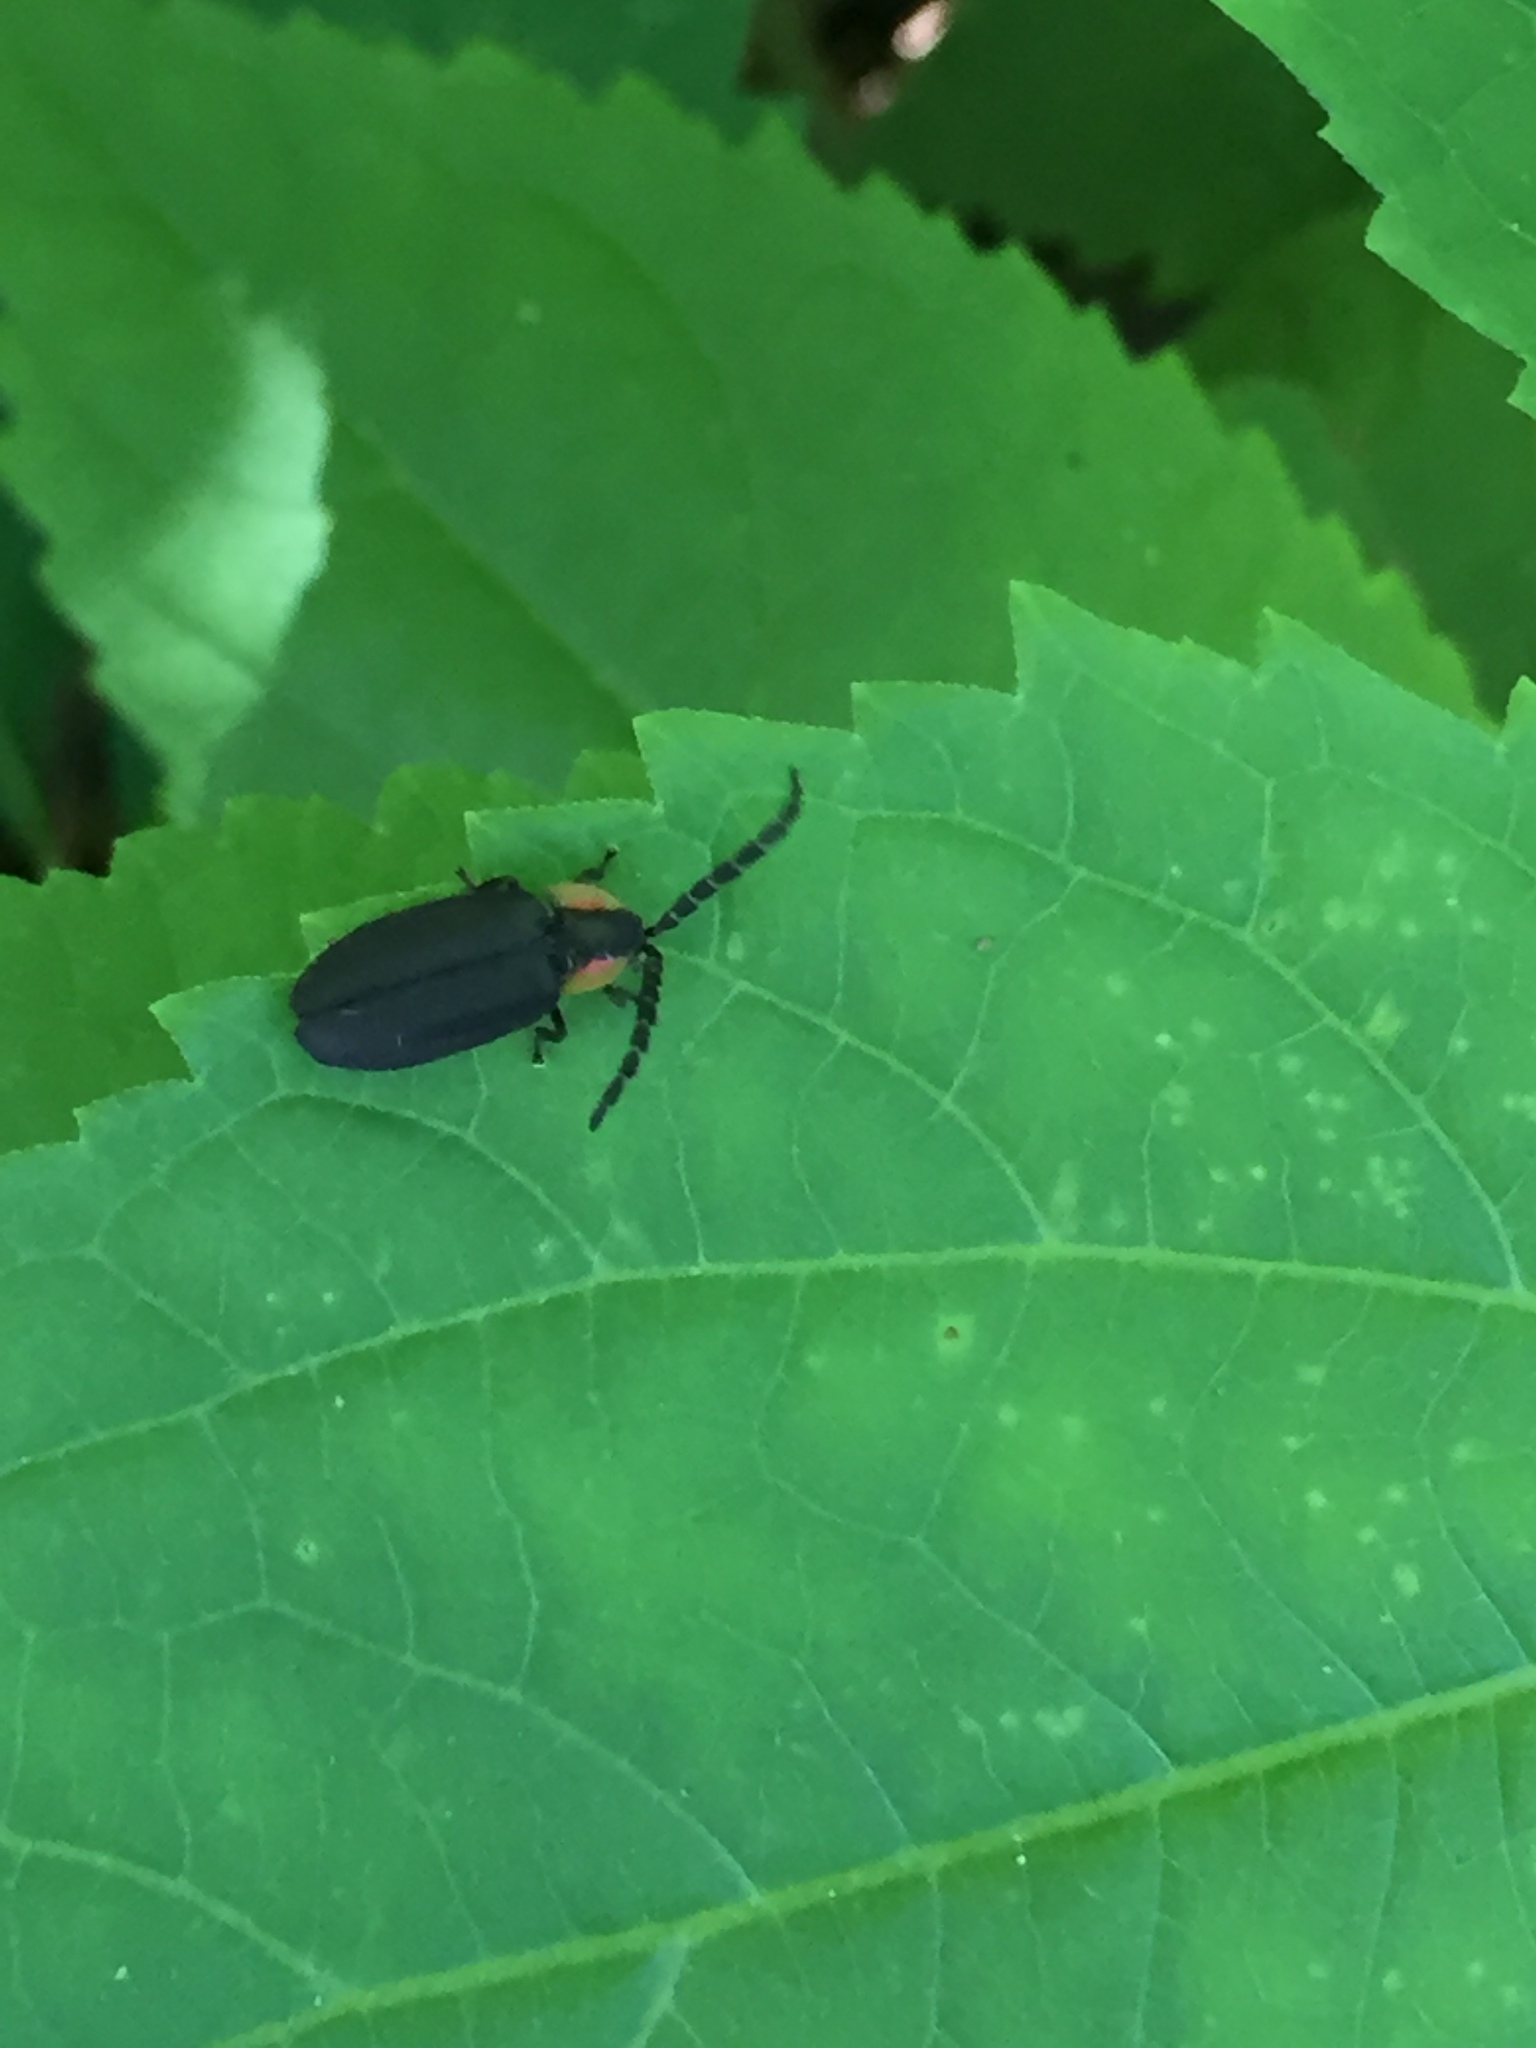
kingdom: Animalia
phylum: Arthropoda
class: Insecta
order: Coleoptera
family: Lampyridae
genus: Lucidota
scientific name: Lucidota atra
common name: Black firefly
